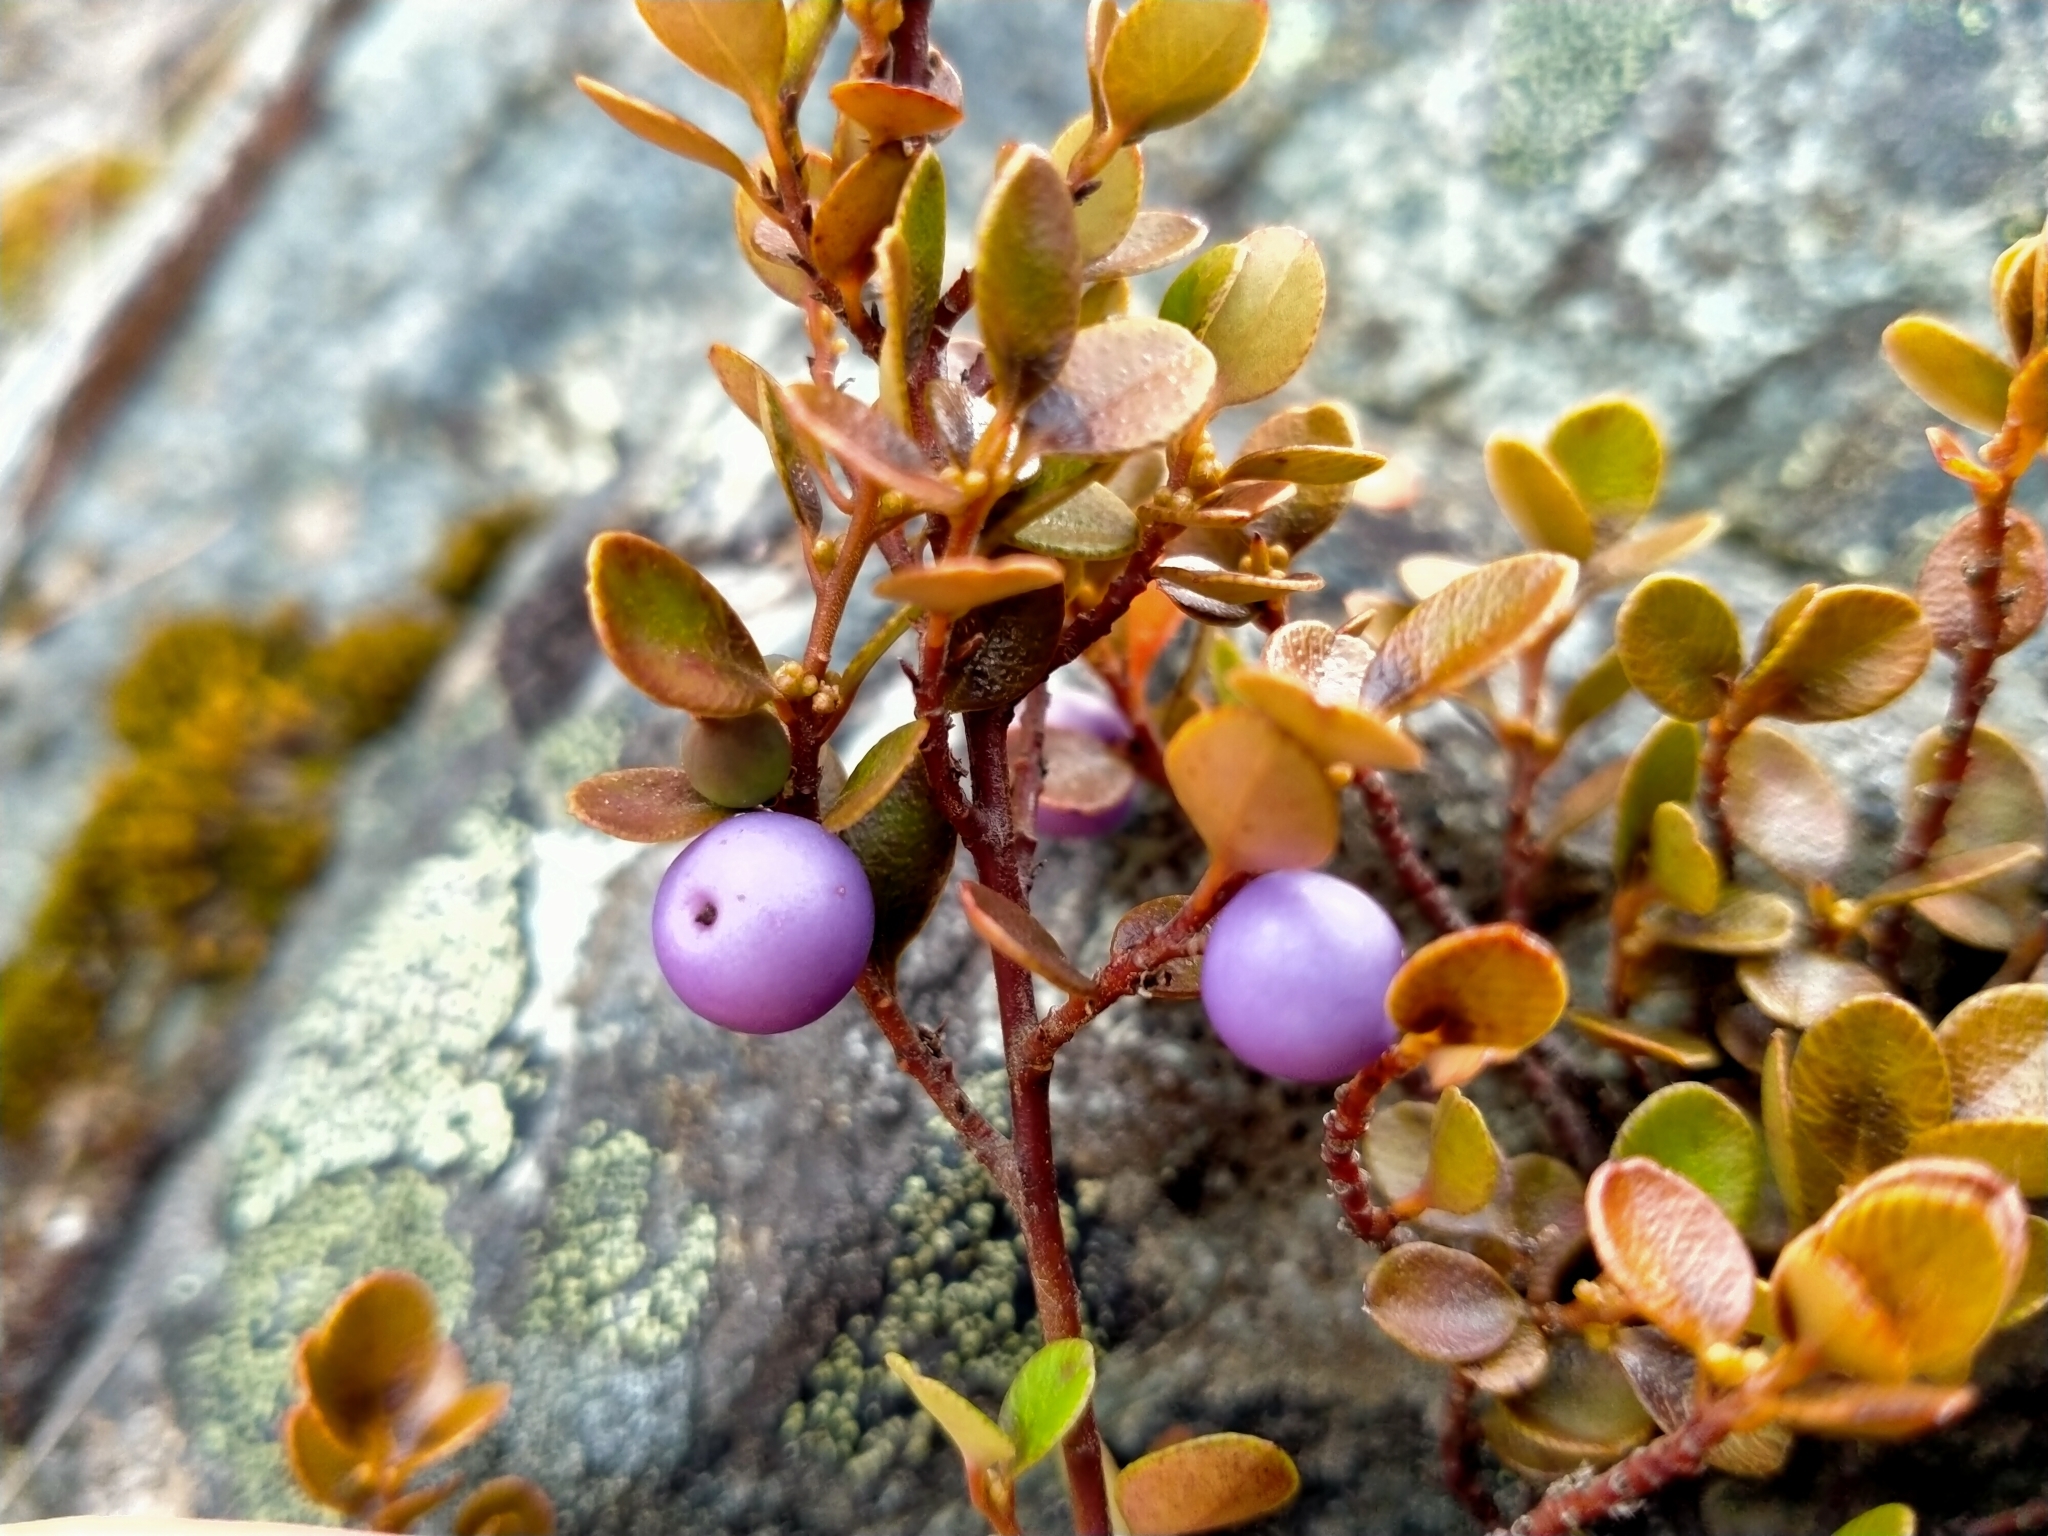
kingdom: Plantae
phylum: Tracheophyta
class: Magnoliopsida
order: Ericales
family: Primulaceae
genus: Myrsine
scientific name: Myrsine nummularia
